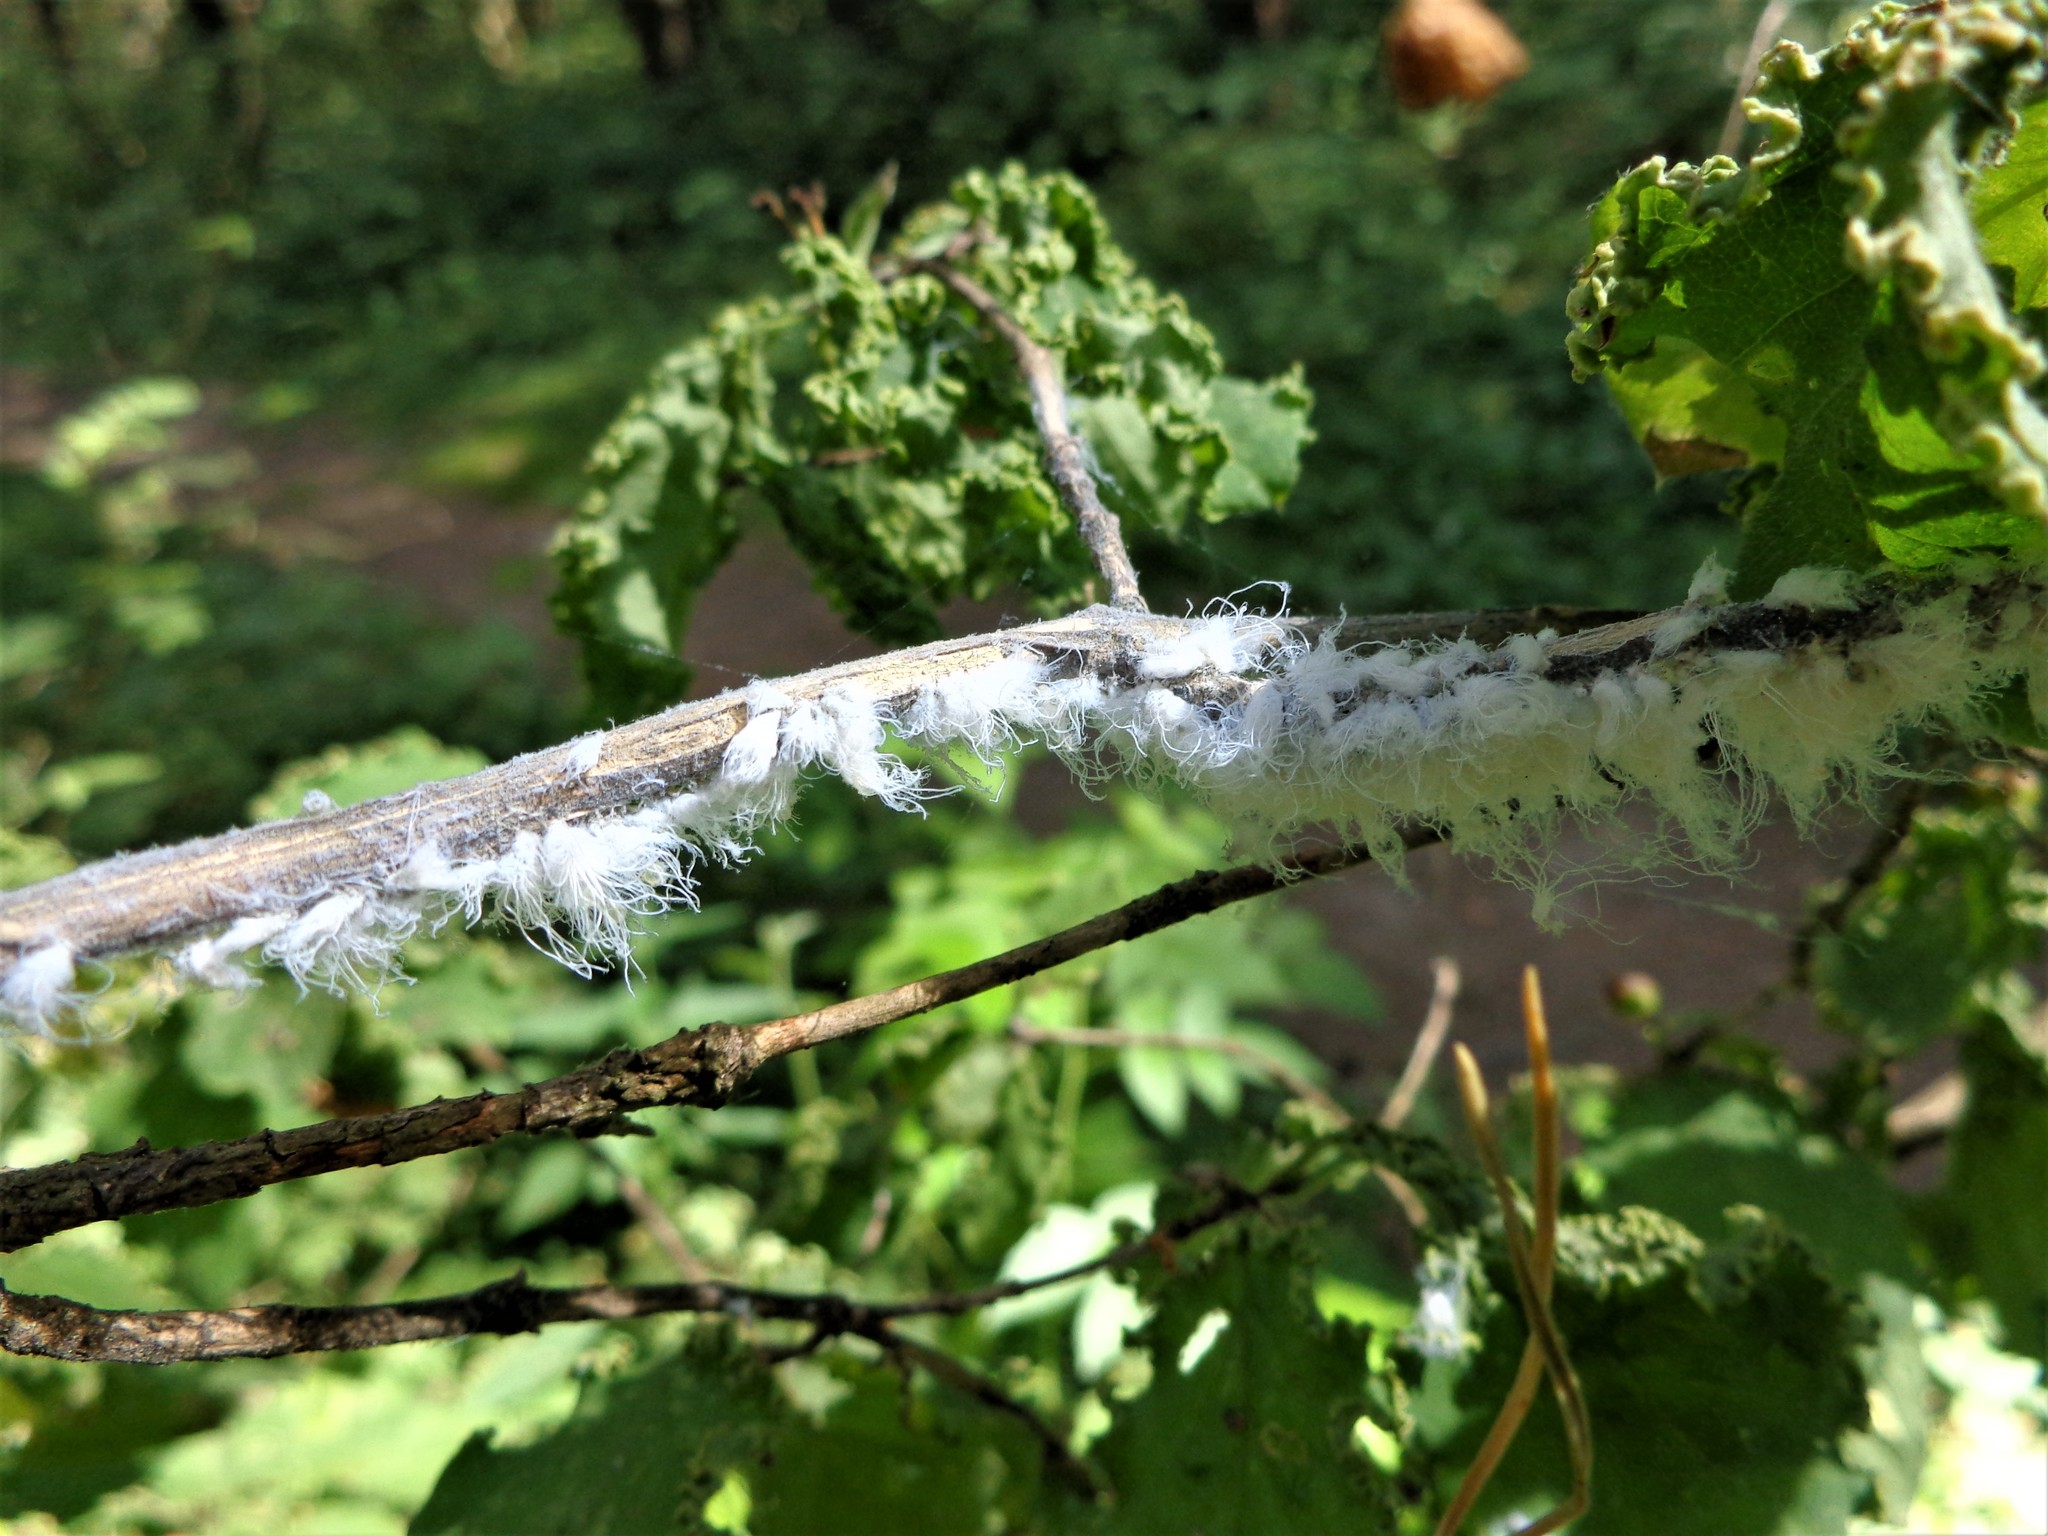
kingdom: Animalia
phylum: Arthropoda
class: Insecta
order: Hemiptera
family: Aphididae
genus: Prociphilus
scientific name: Prociphilus xylostei
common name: Aphid
